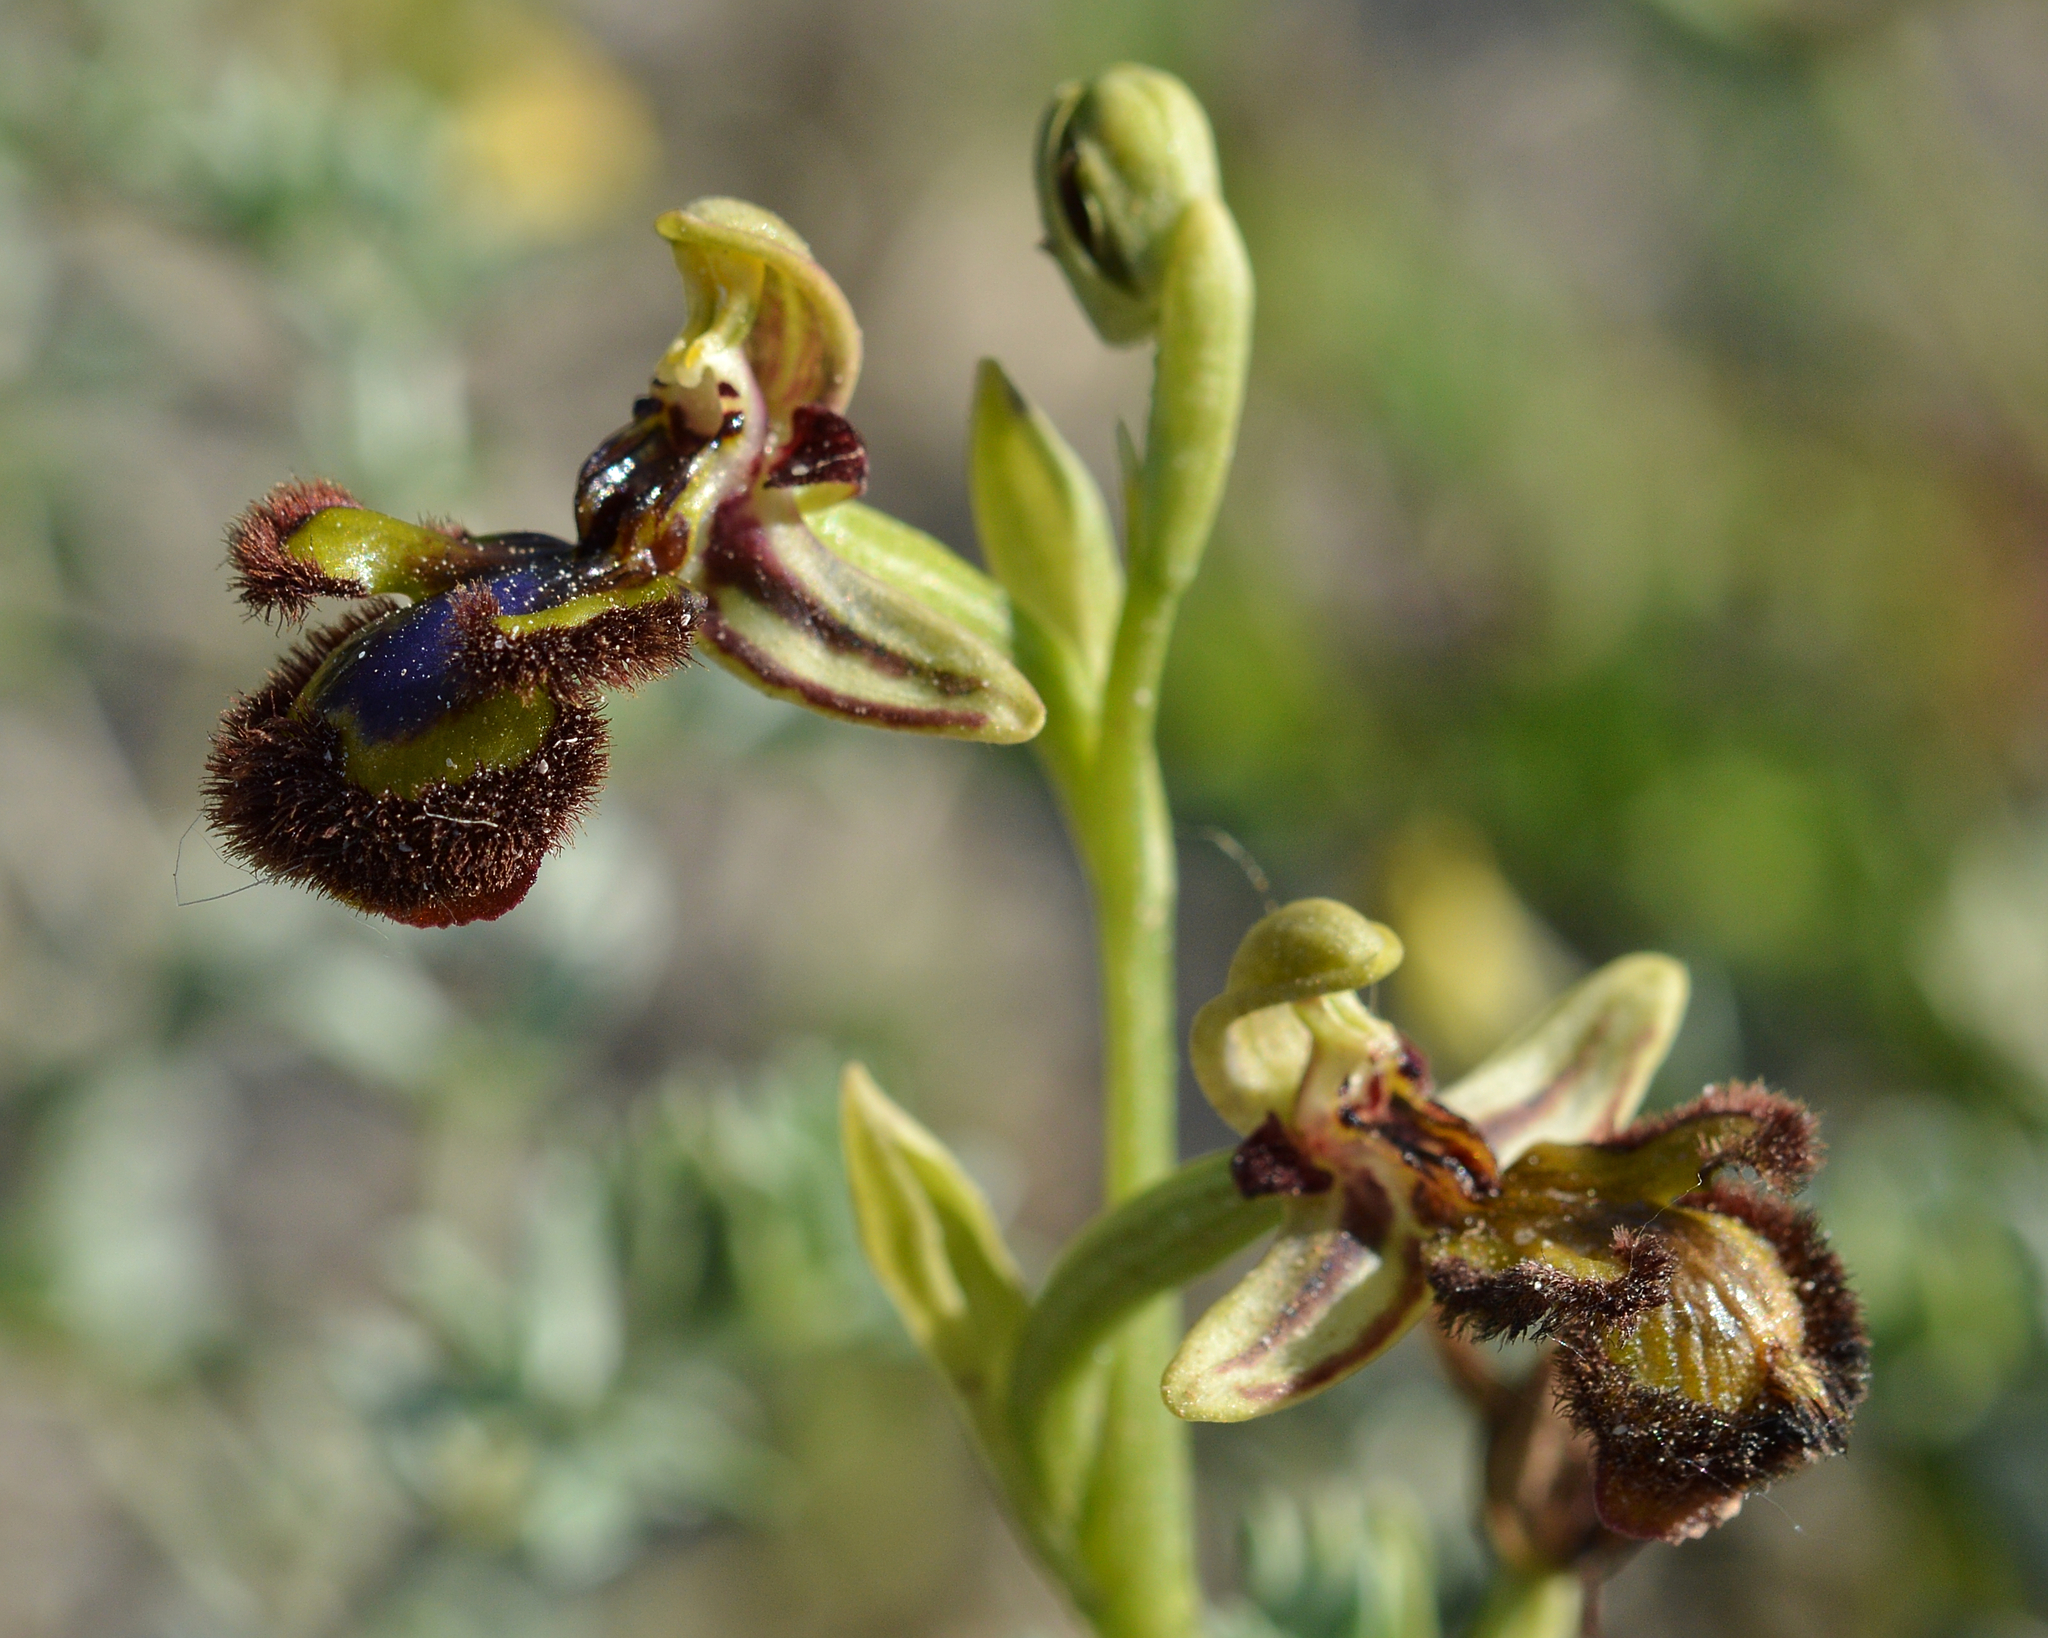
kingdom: Plantae
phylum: Tracheophyta
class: Liliopsida
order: Asparagales
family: Orchidaceae
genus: Ophrys
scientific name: Ophrys speculum
